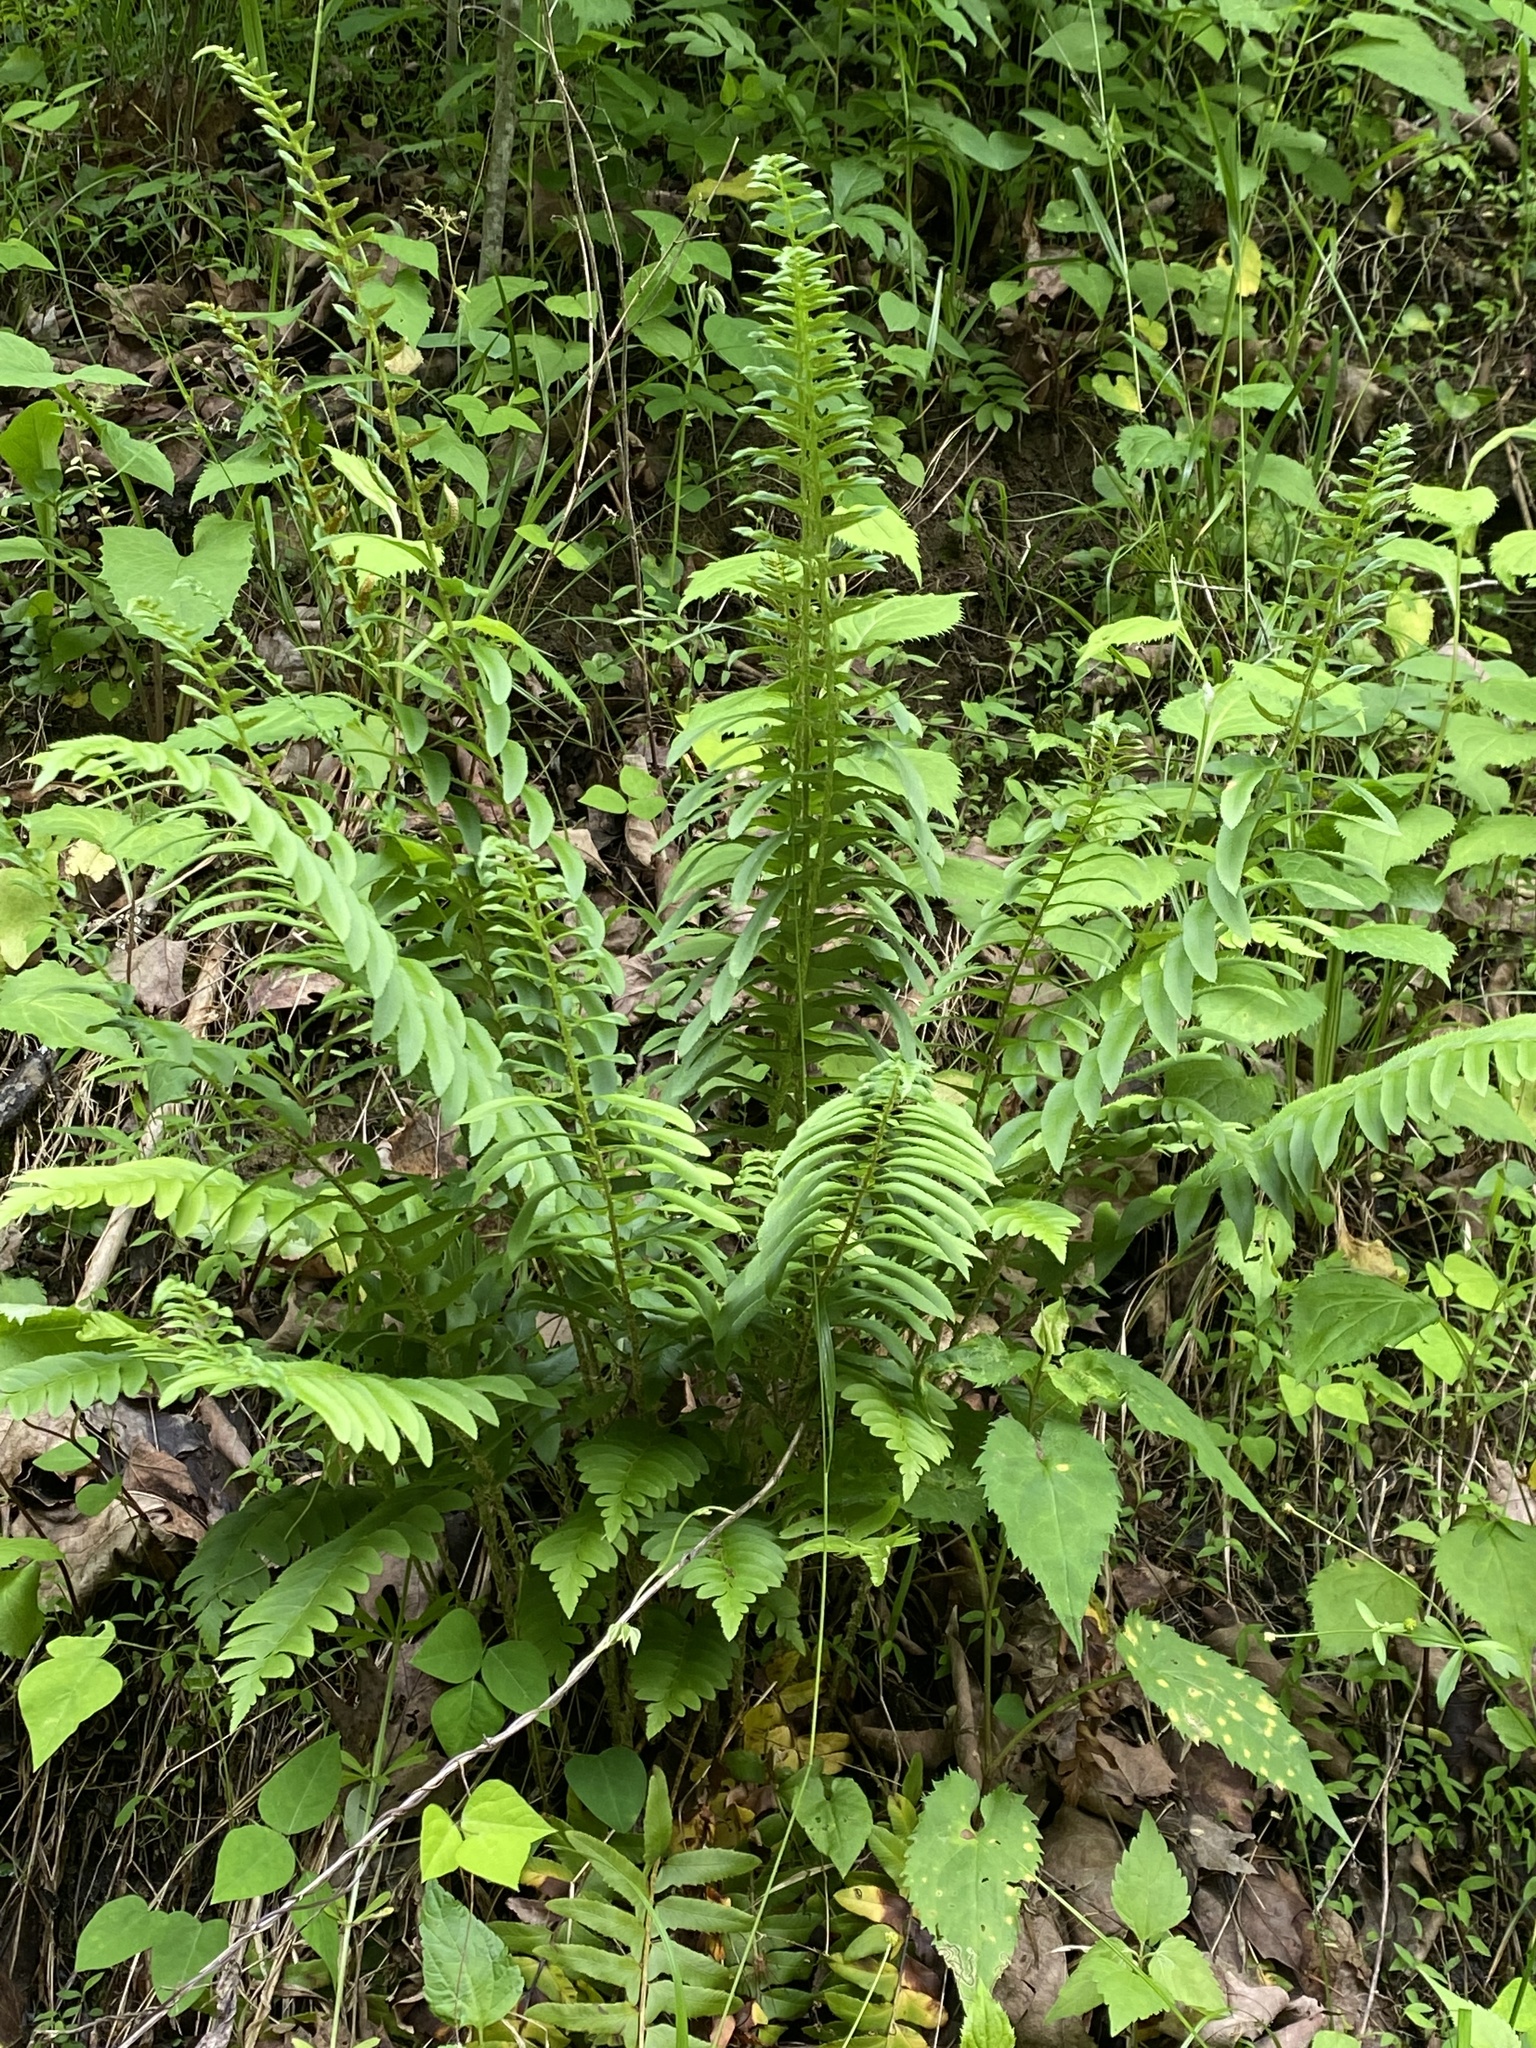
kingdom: Plantae
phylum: Tracheophyta
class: Polypodiopsida
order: Polypodiales
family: Dryopteridaceae
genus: Polystichum
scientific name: Polystichum acrostichoides
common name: Christmas fern
